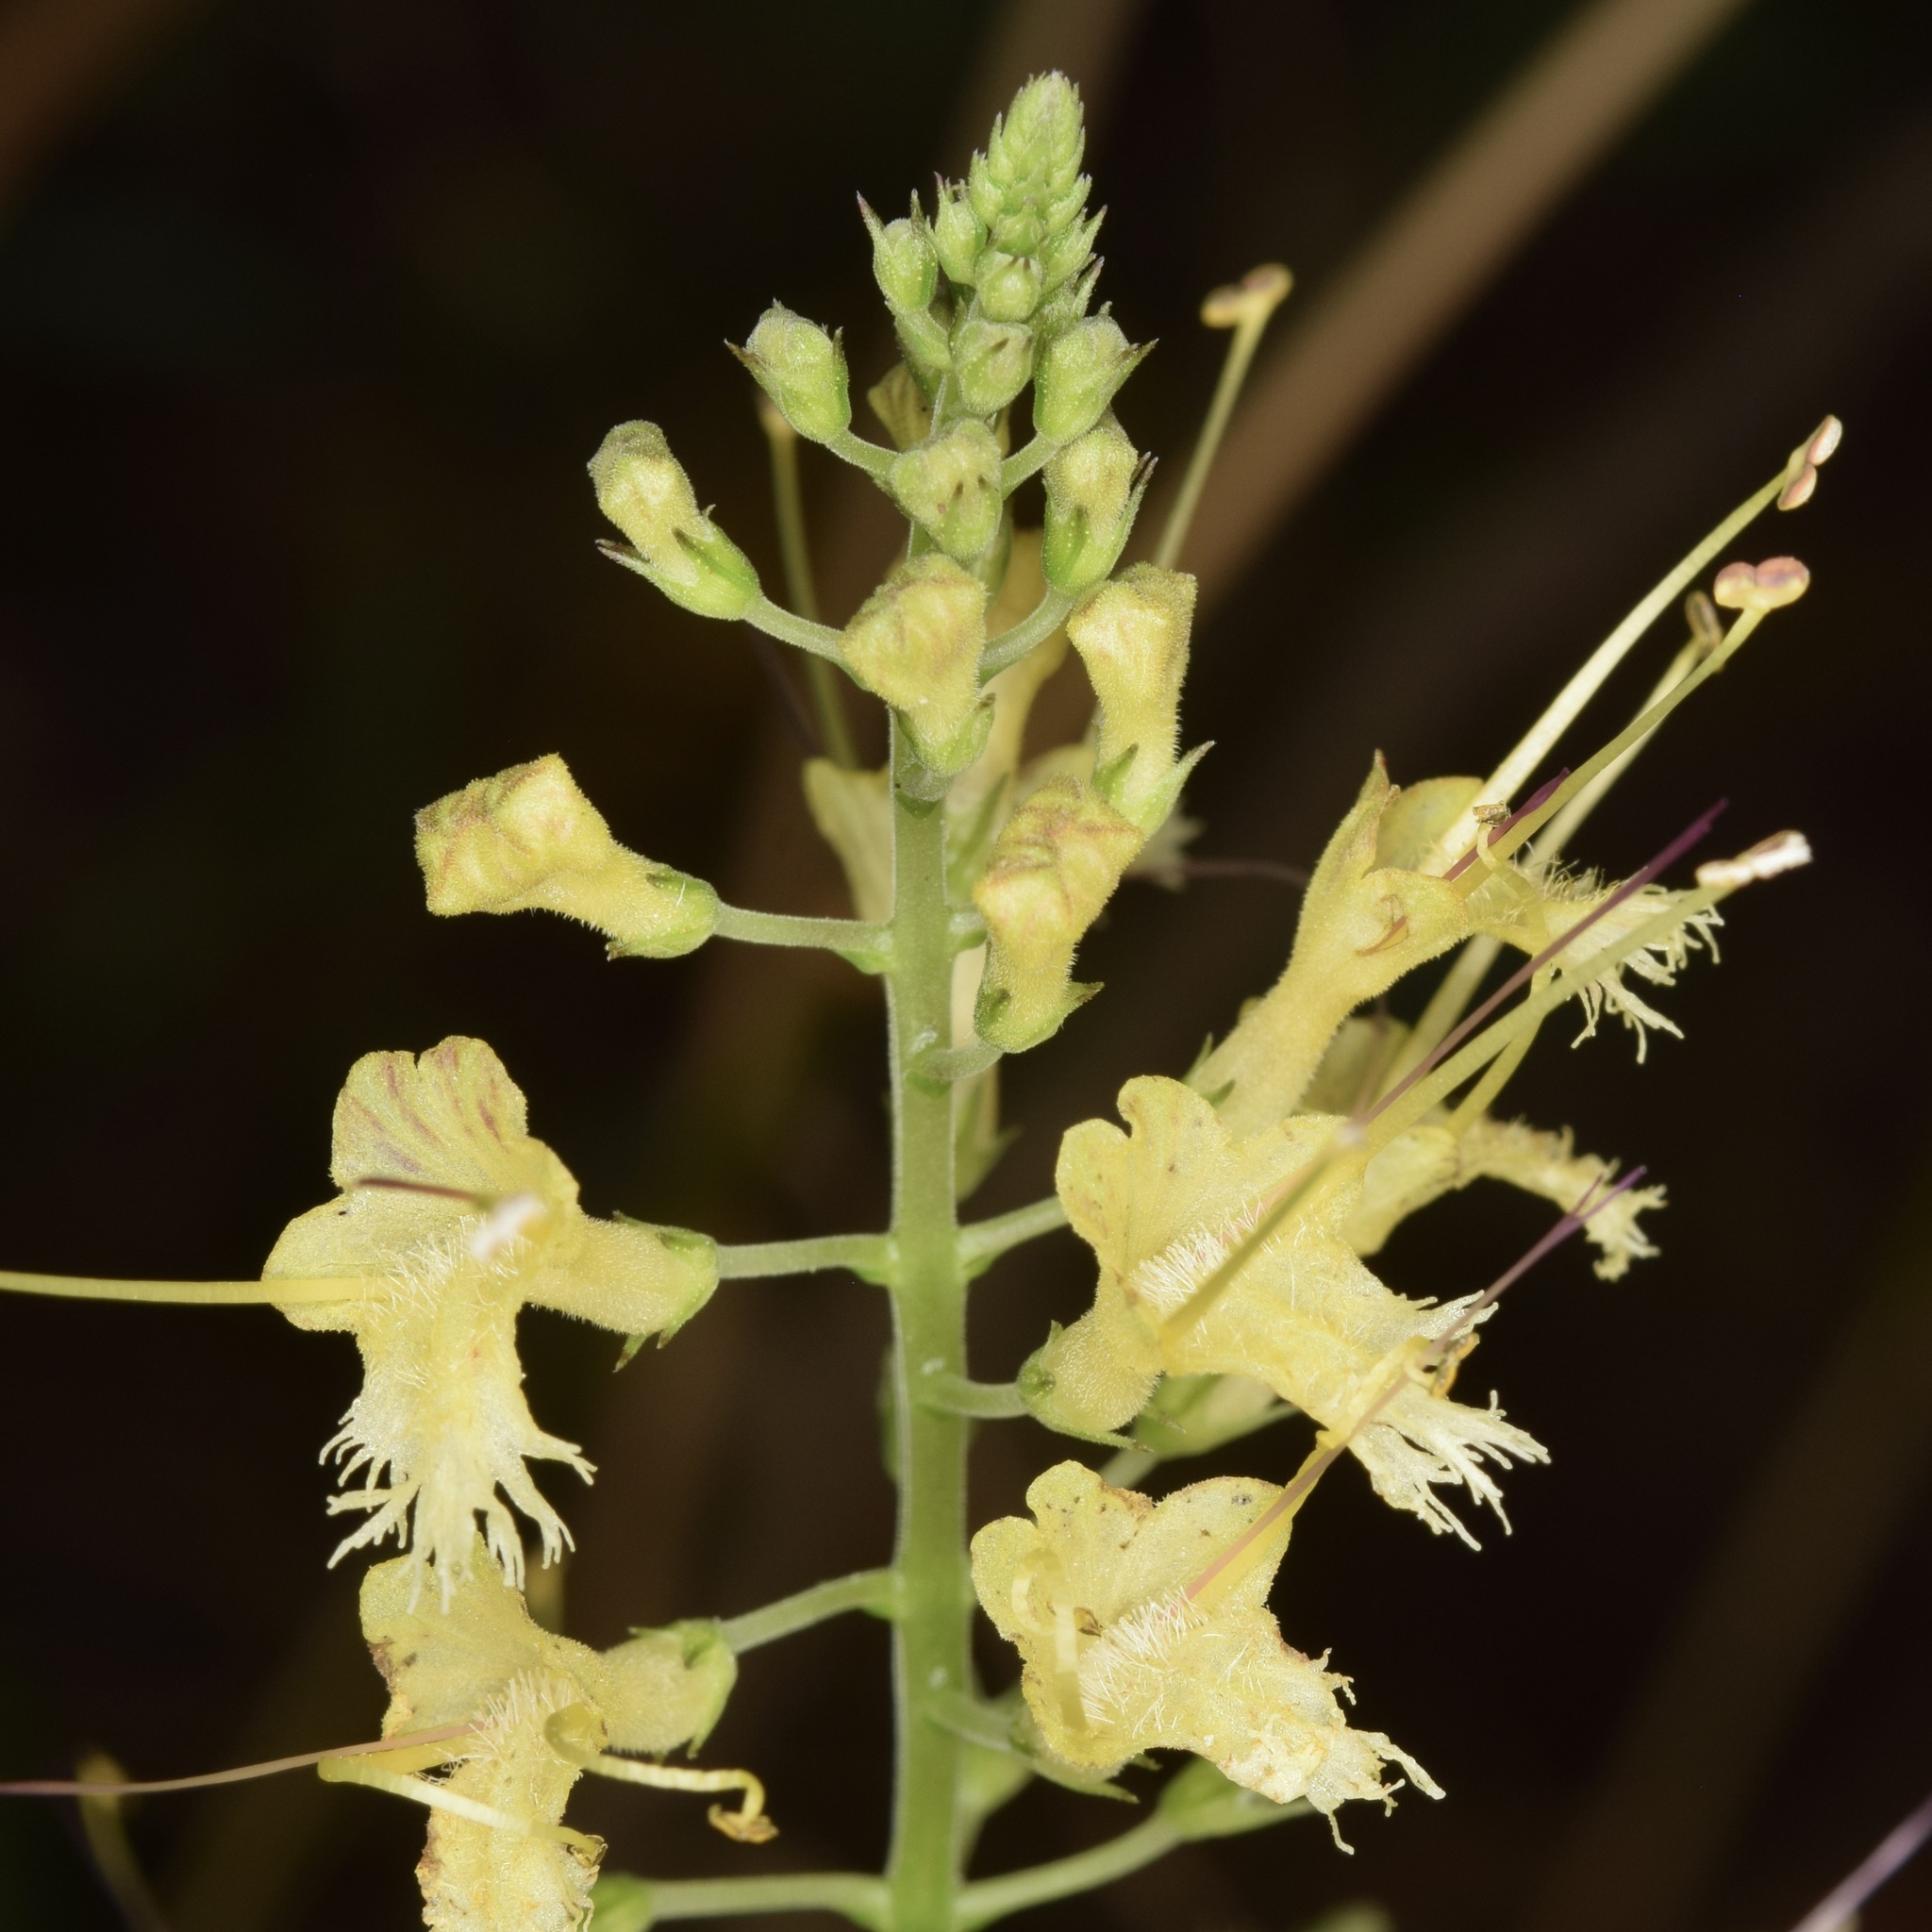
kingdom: Plantae
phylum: Tracheophyta
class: Magnoliopsida
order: Lamiales
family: Lamiaceae
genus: Collinsonia
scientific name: Collinsonia canadensis
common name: Northern horsebalm
